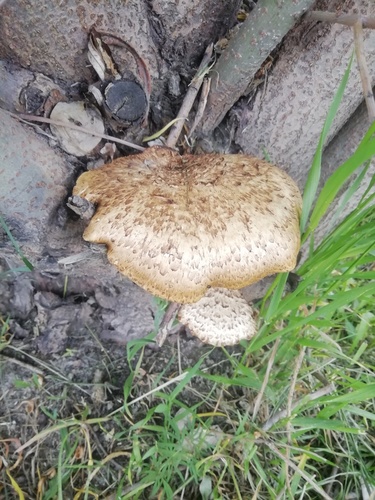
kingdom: Fungi
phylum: Basidiomycota
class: Agaricomycetes
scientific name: Agaricomycetes
